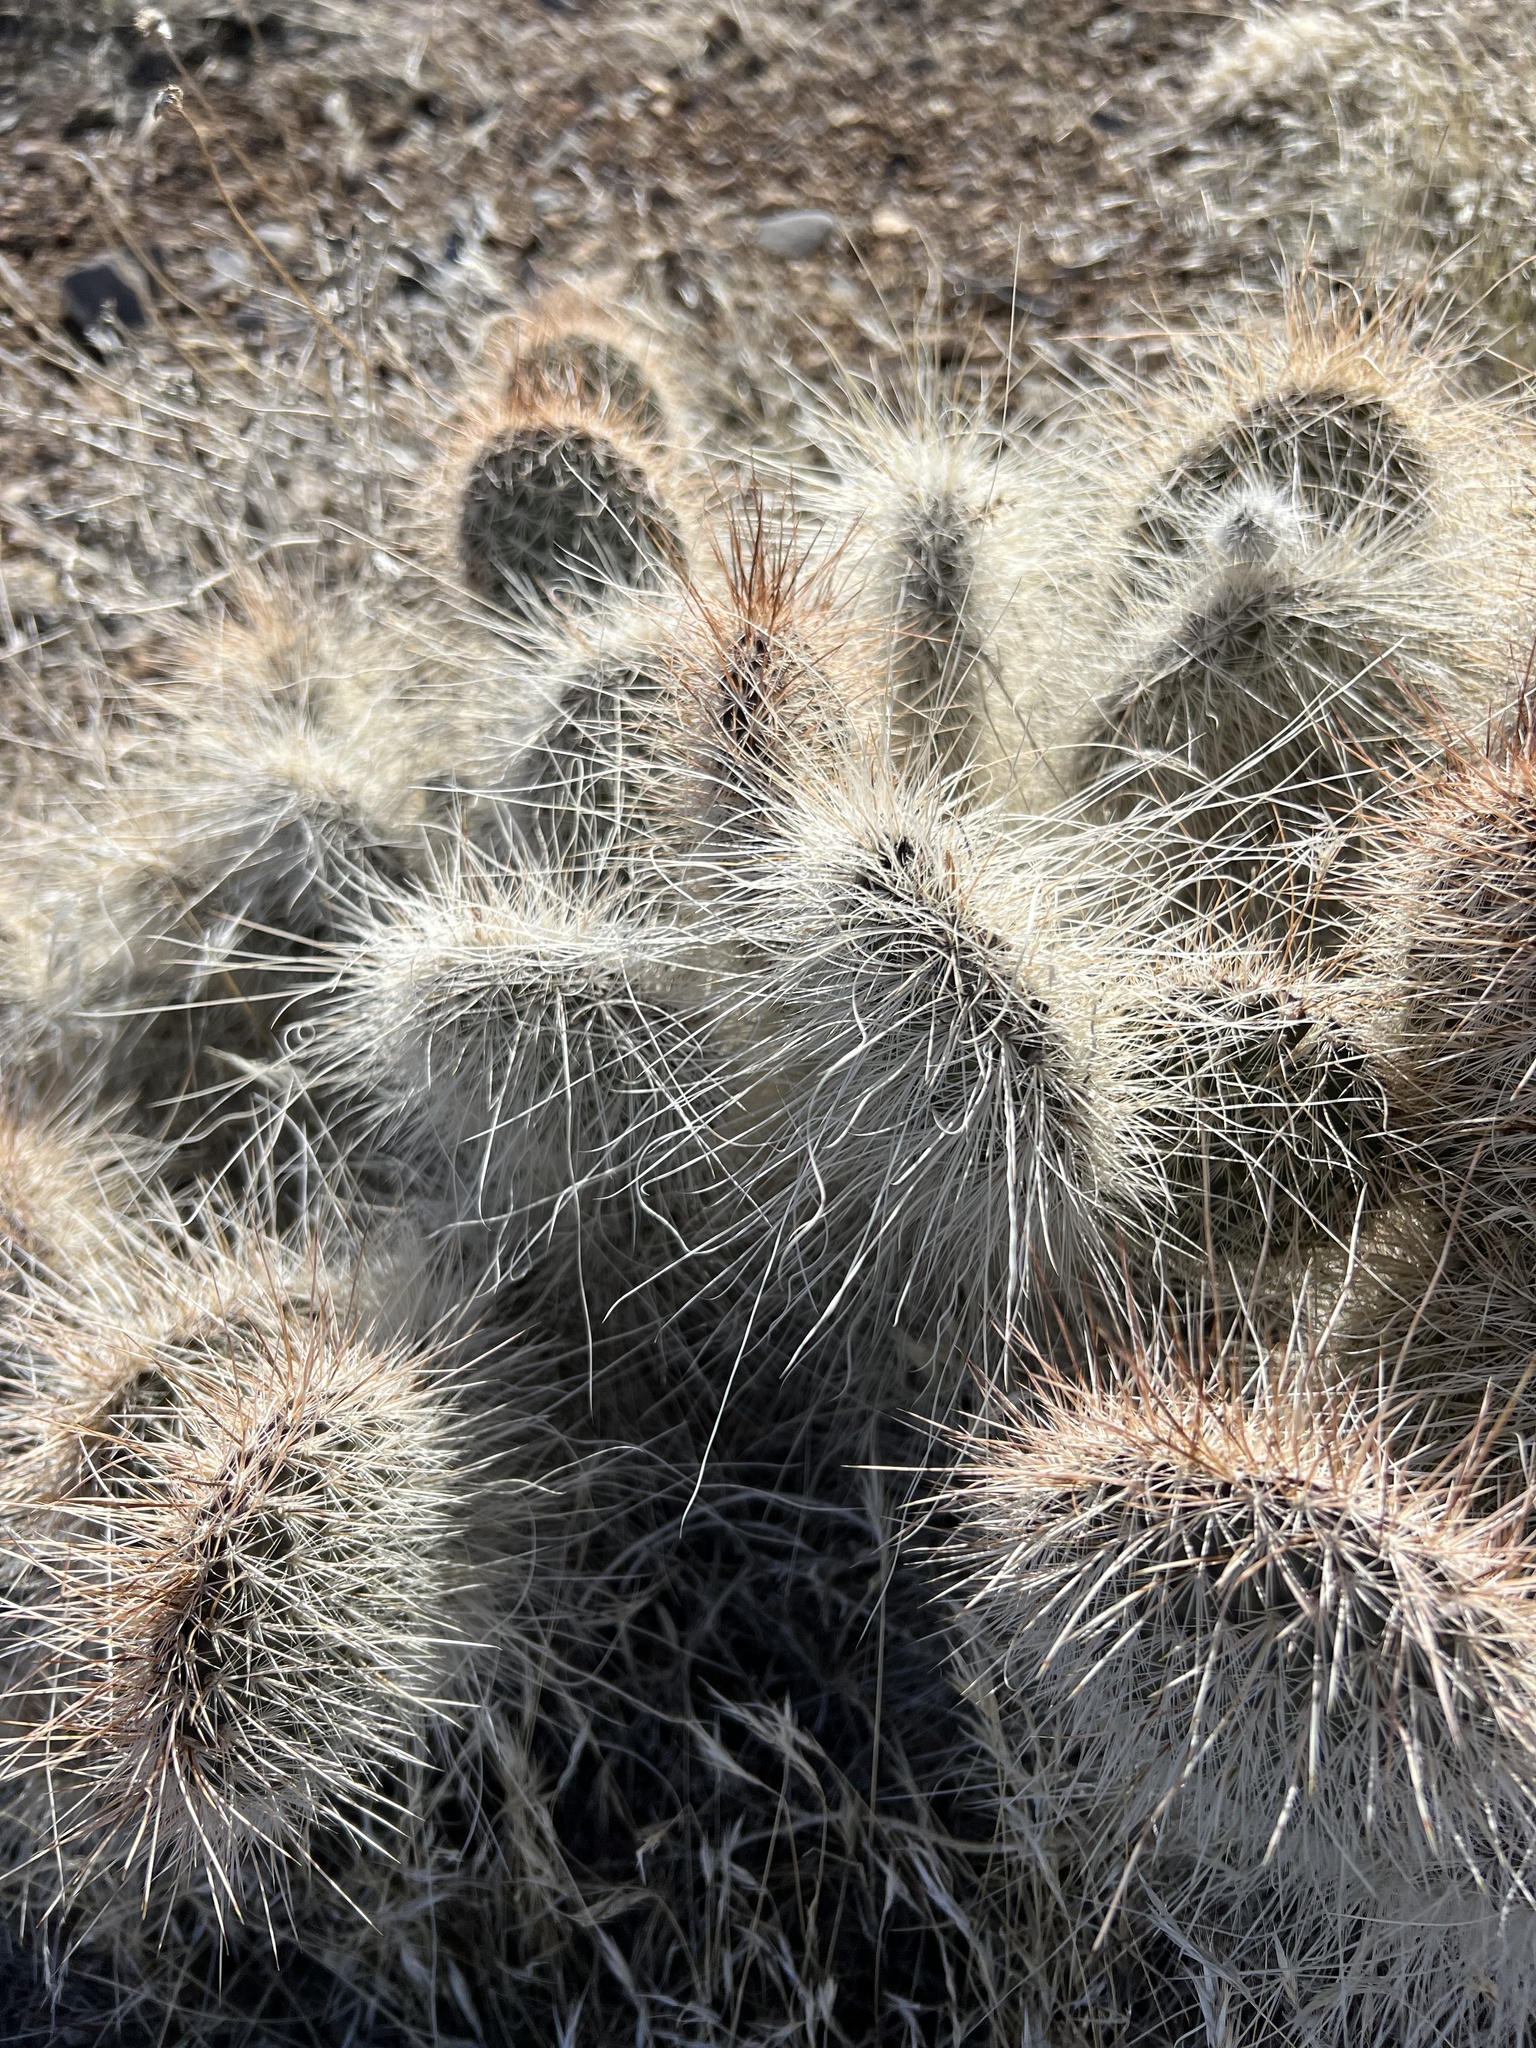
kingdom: Plantae
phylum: Tracheophyta
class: Magnoliopsida
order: Caryophyllales
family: Cactaceae
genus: Opuntia
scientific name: Opuntia polyacantha
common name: Plains prickly-pear
